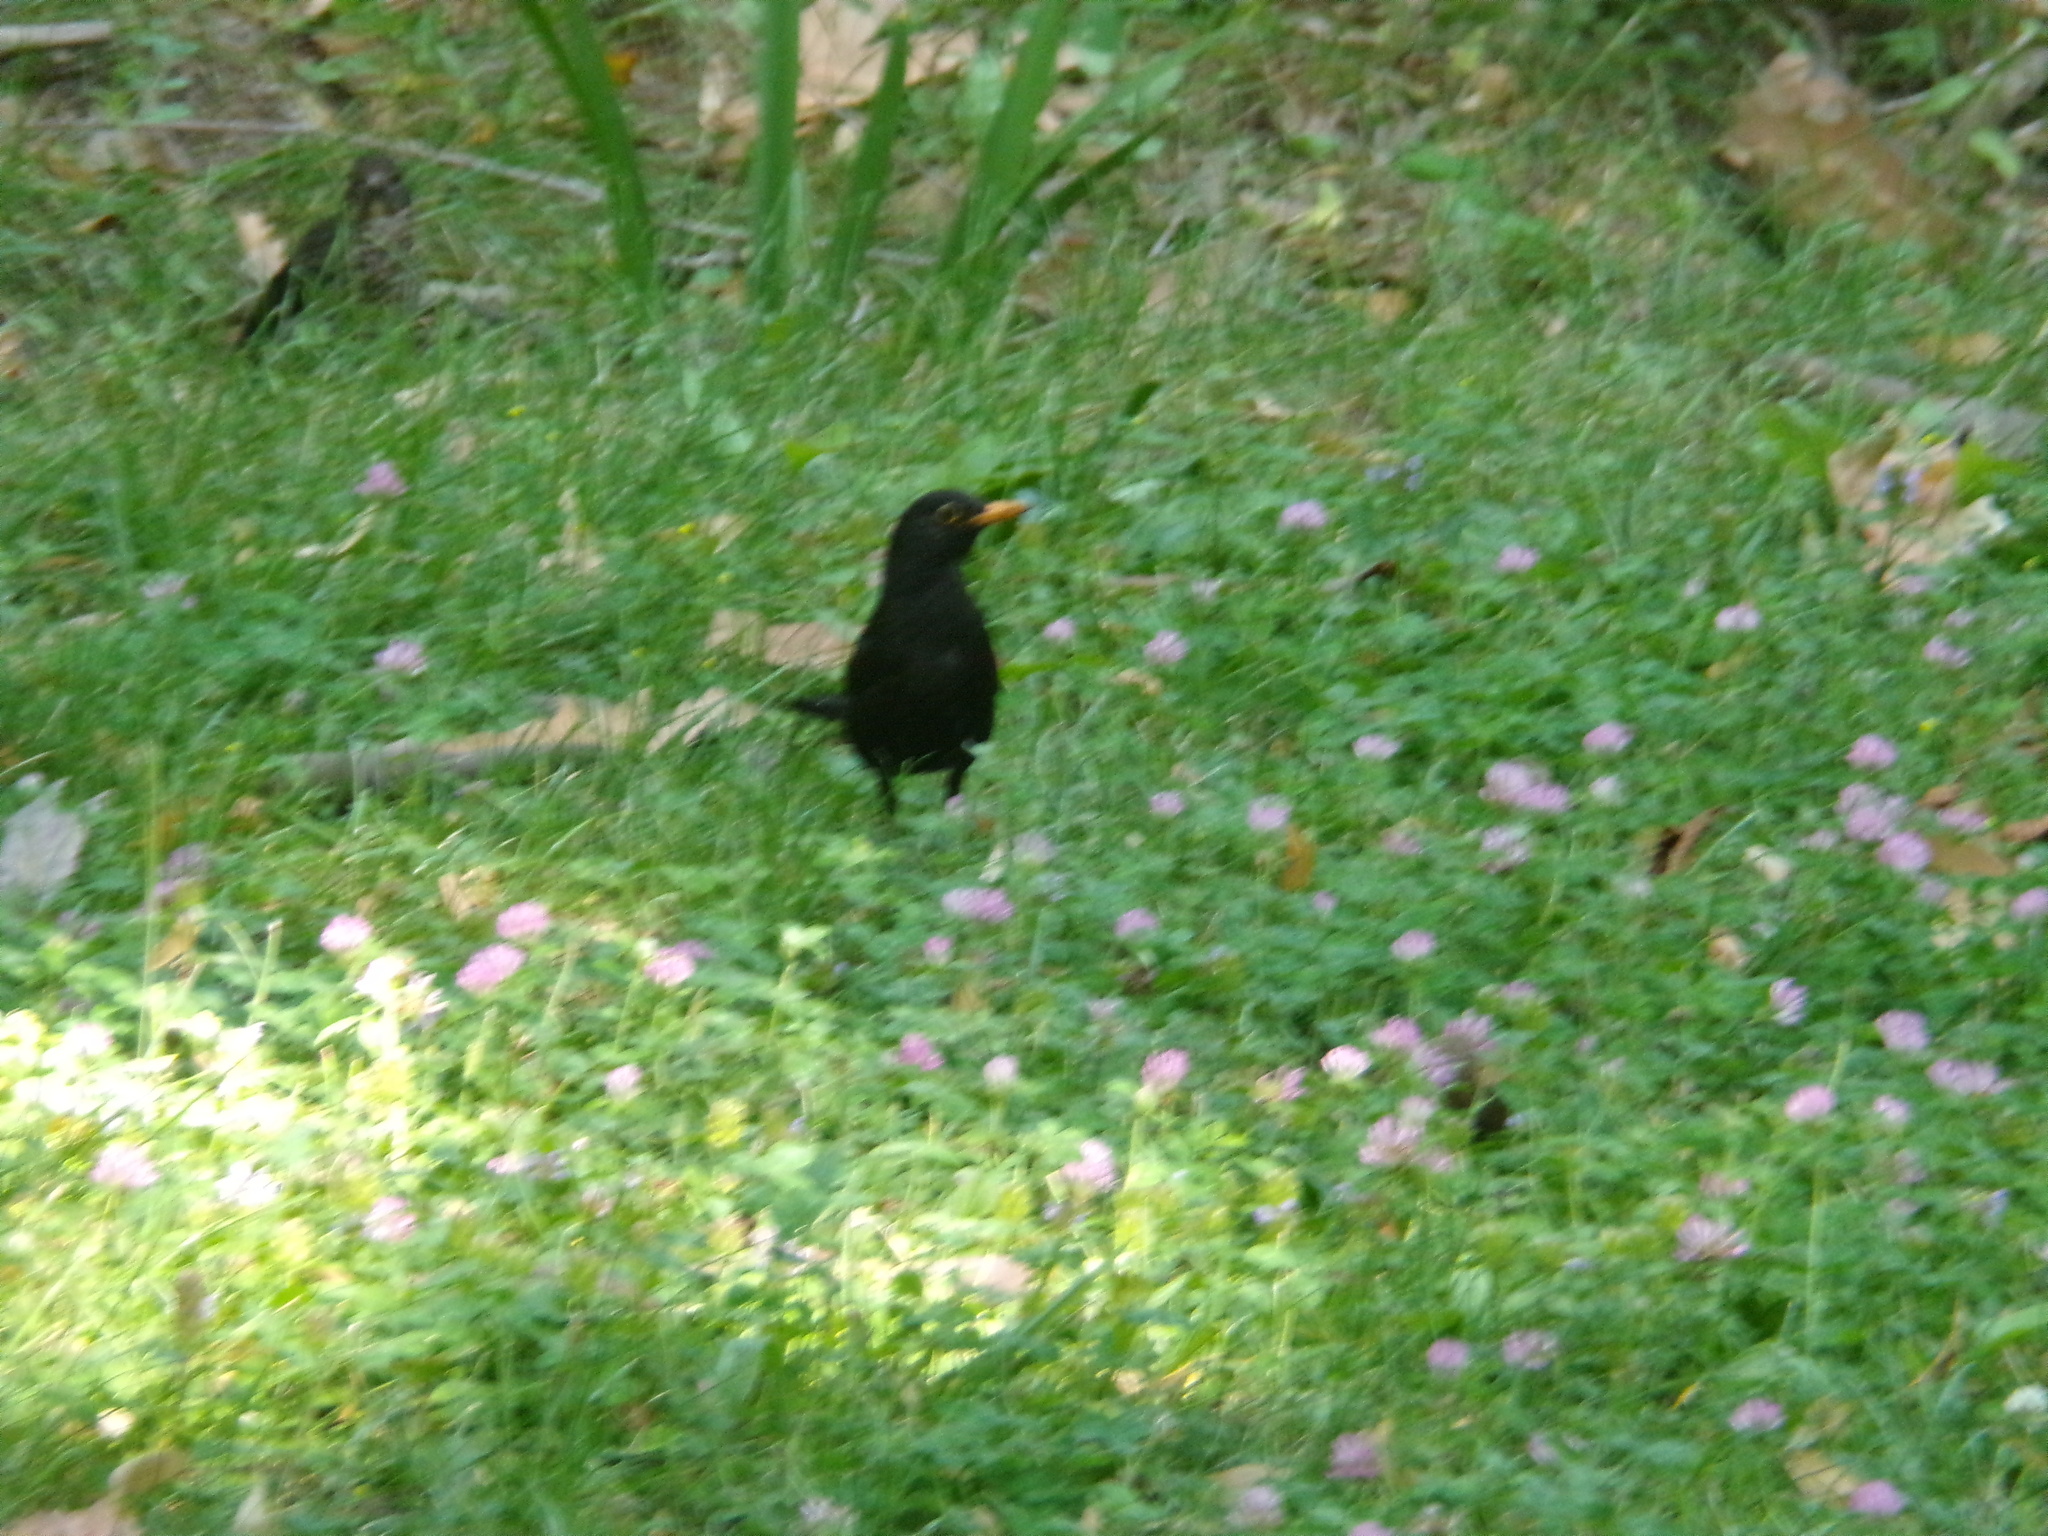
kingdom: Animalia
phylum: Chordata
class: Aves
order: Passeriformes
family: Turdidae
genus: Turdus
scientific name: Turdus merula
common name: Common blackbird
